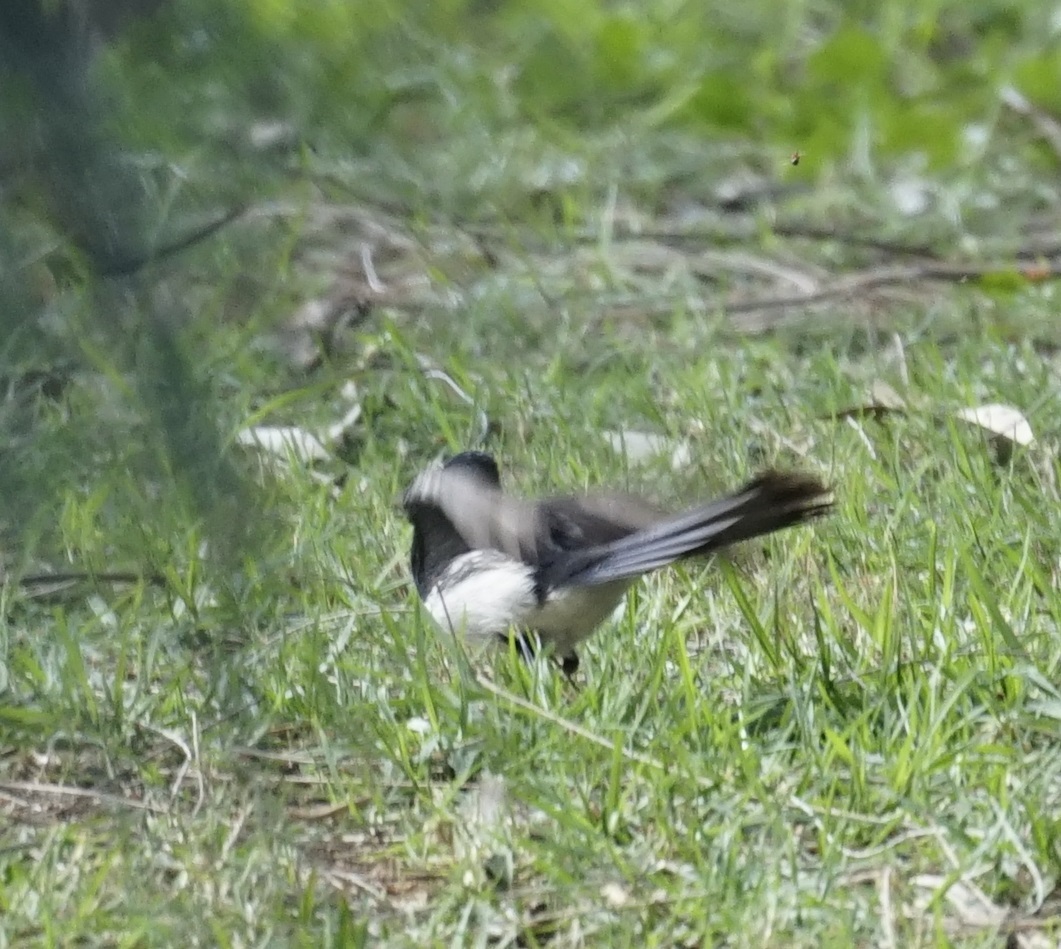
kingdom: Animalia
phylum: Chordata
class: Aves
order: Passeriformes
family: Rhipiduridae
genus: Rhipidura
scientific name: Rhipidura leucophrys
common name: Willie wagtail
